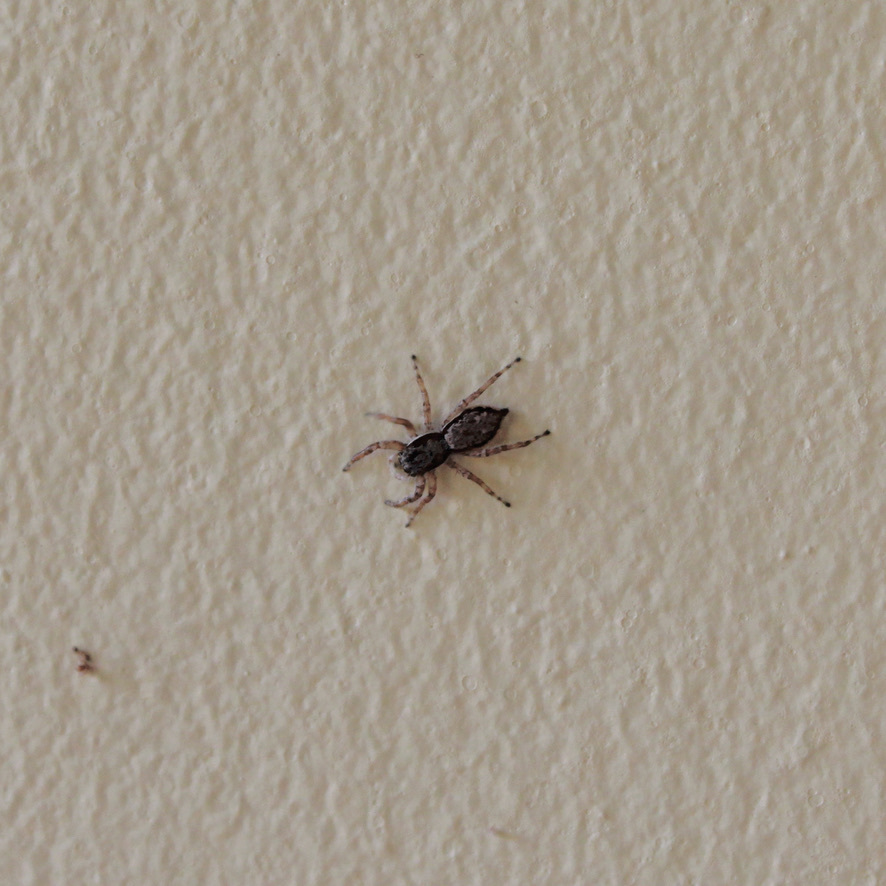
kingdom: Animalia
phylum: Arthropoda
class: Arachnida
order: Araneae
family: Salticidae
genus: Menemerus
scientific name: Menemerus bivittatus
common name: Gray wall jumper
